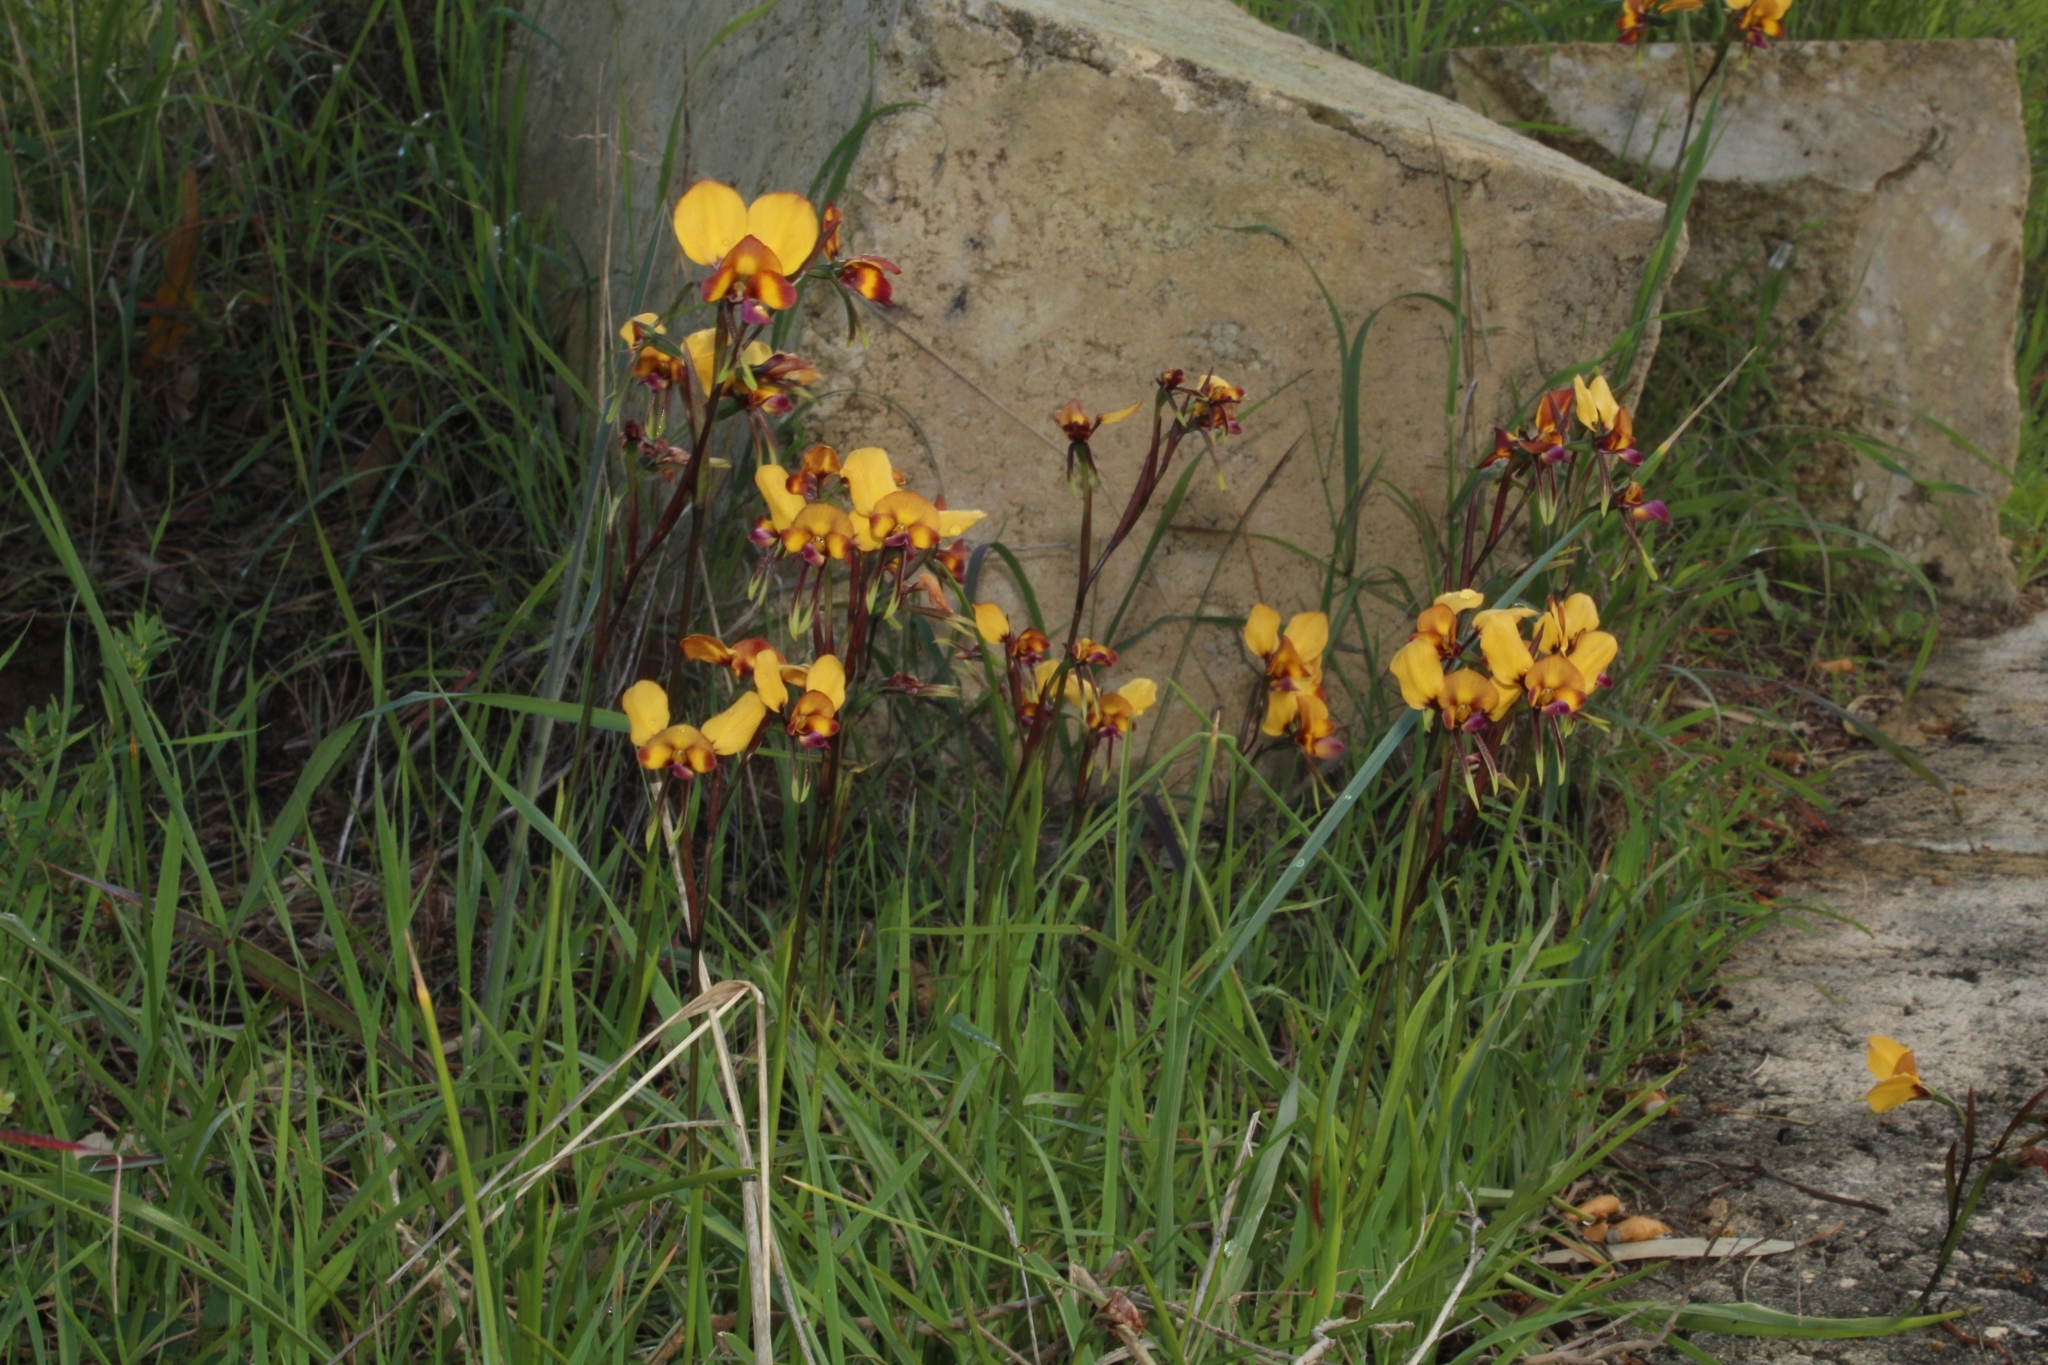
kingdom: Plantae
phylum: Tracheophyta
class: Liliopsida
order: Asparagales
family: Orchidaceae
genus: Diuris
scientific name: Diuris magnifica
